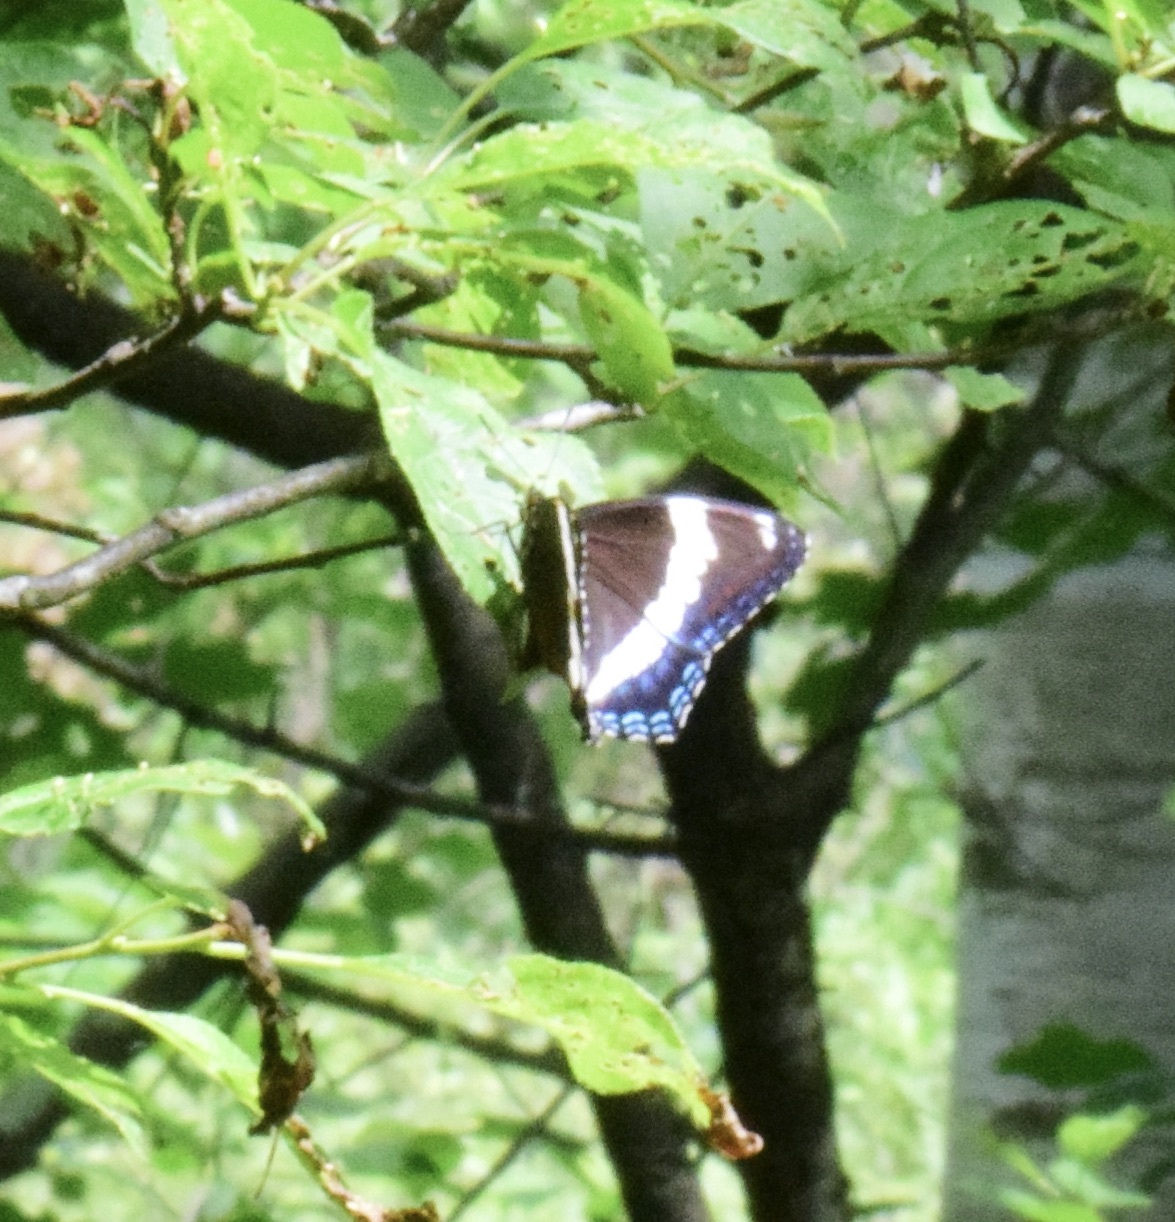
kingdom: Animalia
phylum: Arthropoda
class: Insecta
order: Lepidoptera
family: Nymphalidae
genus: Limenitis
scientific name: Limenitis arthemis
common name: Red-spotted admiral
